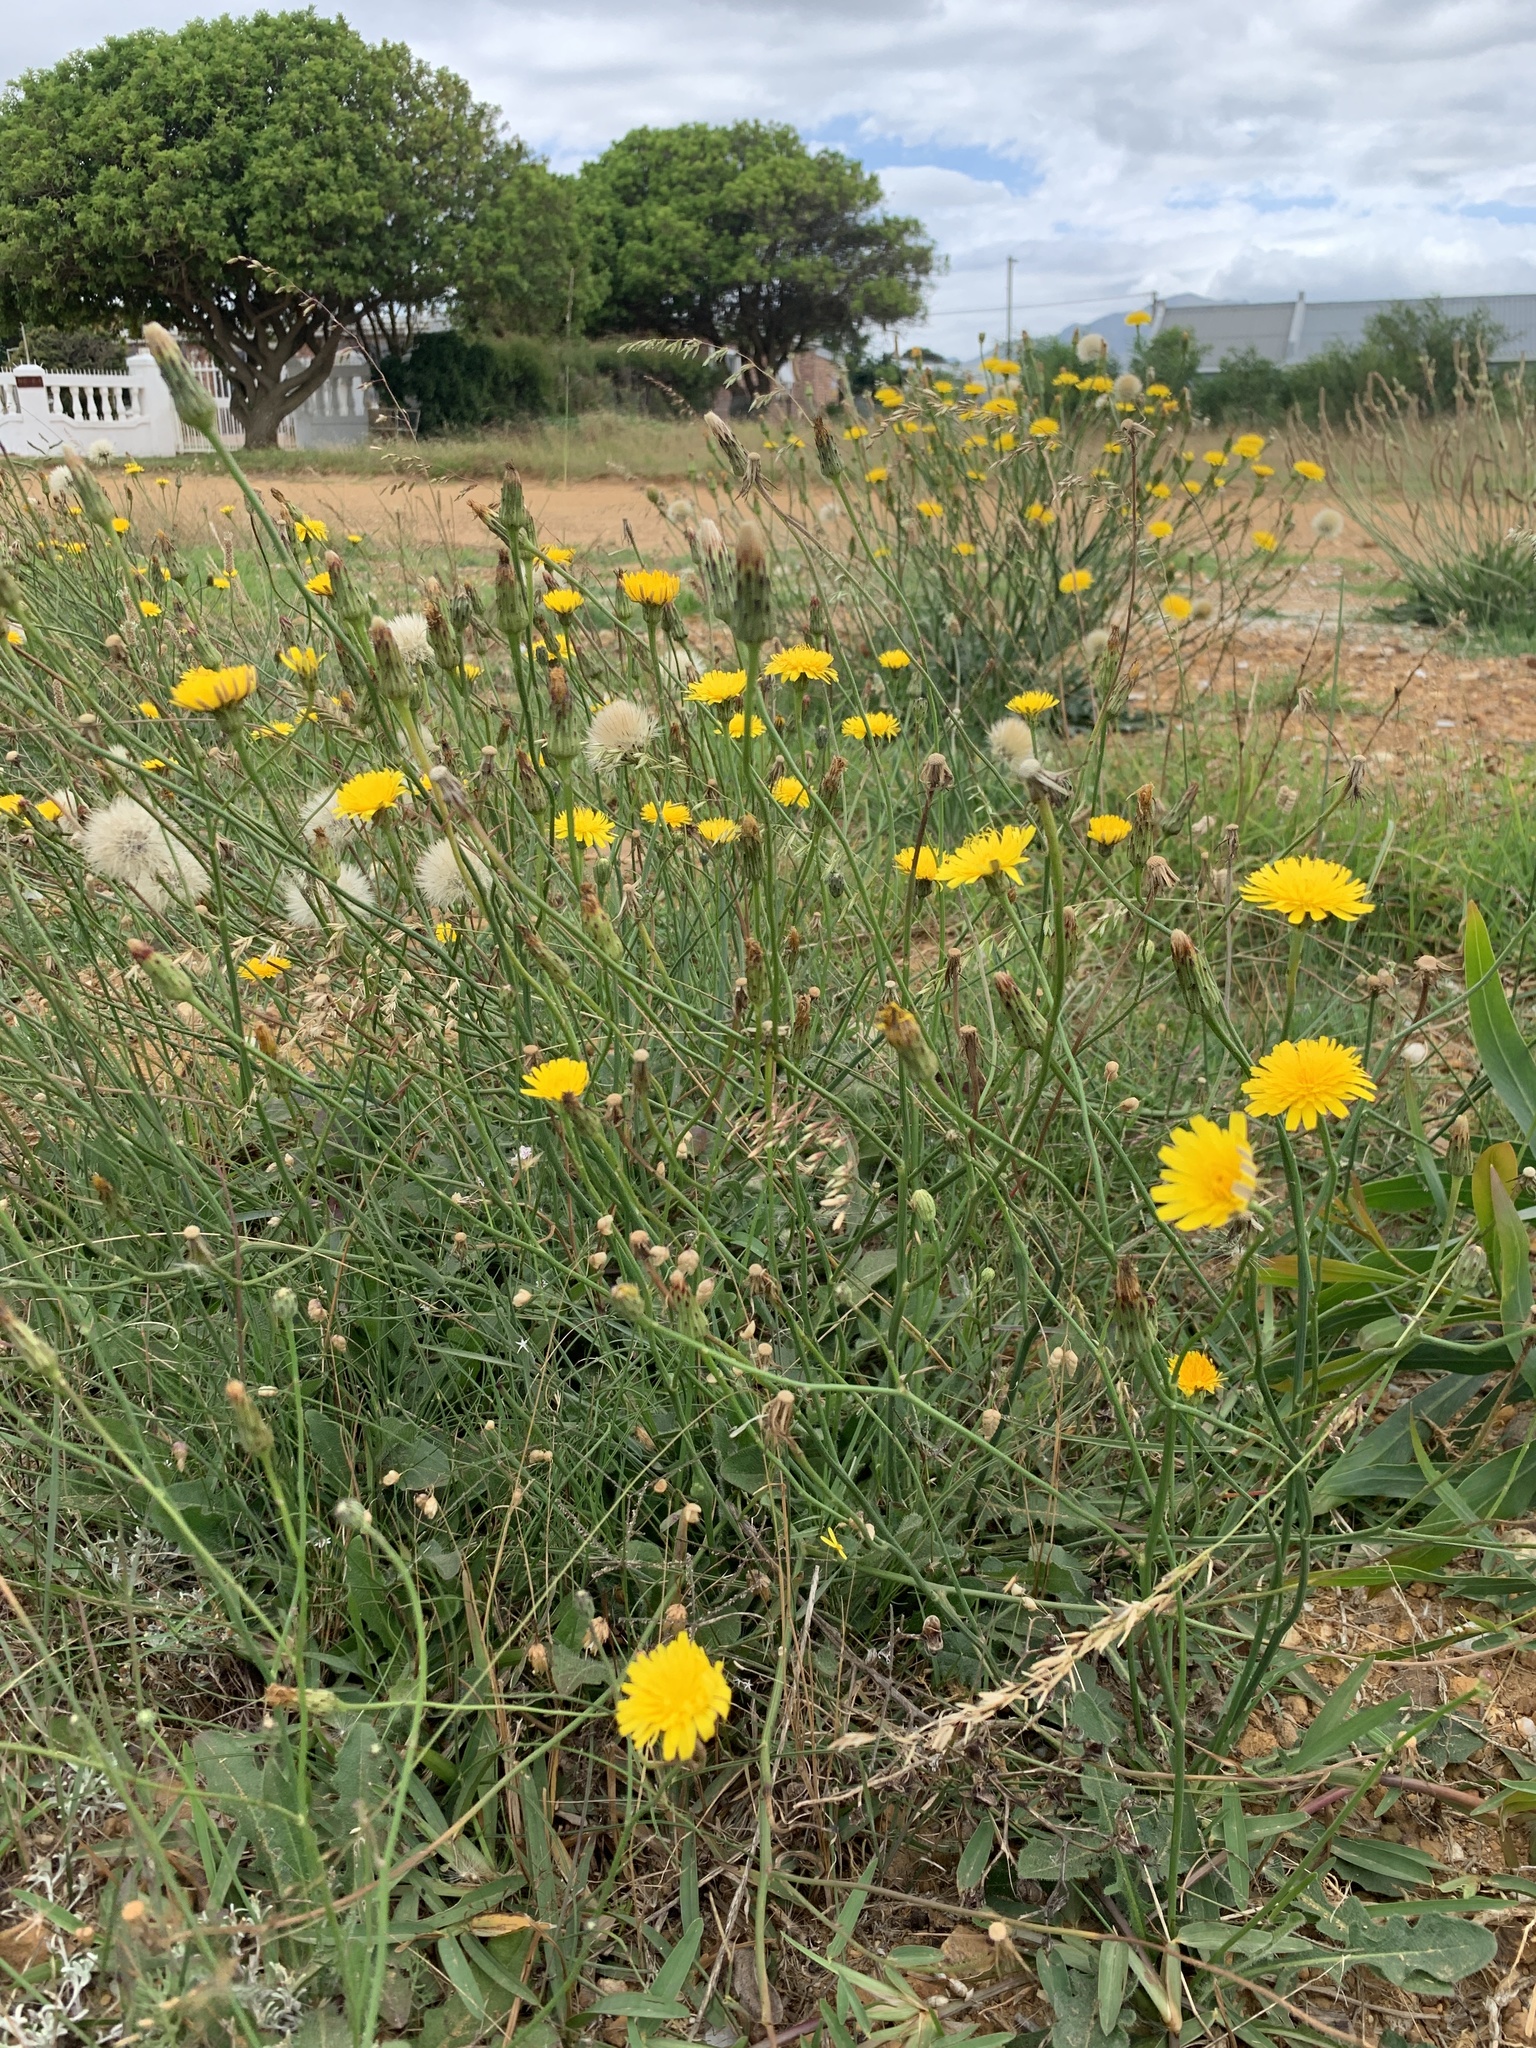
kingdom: Plantae
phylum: Tracheophyta
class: Magnoliopsida
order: Asterales
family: Asteraceae
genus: Hypochaeris
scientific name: Hypochaeris radicata
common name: Flatweed
